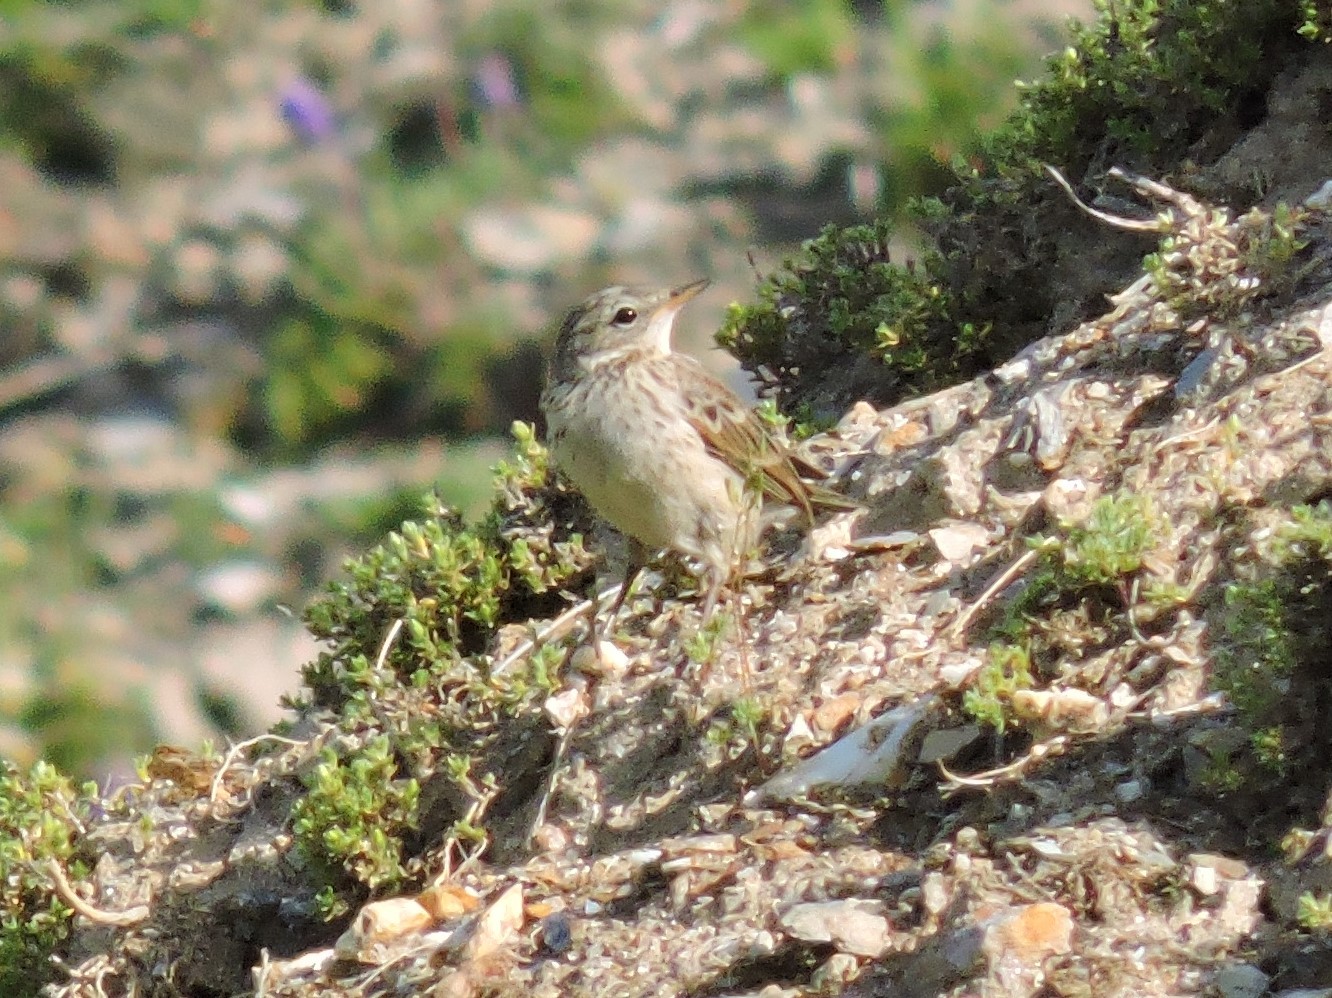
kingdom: Animalia
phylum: Chordata
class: Aves
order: Passeriformes
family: Motacillidae
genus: Anthus
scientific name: Anthus spinoletta
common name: Water pipit
